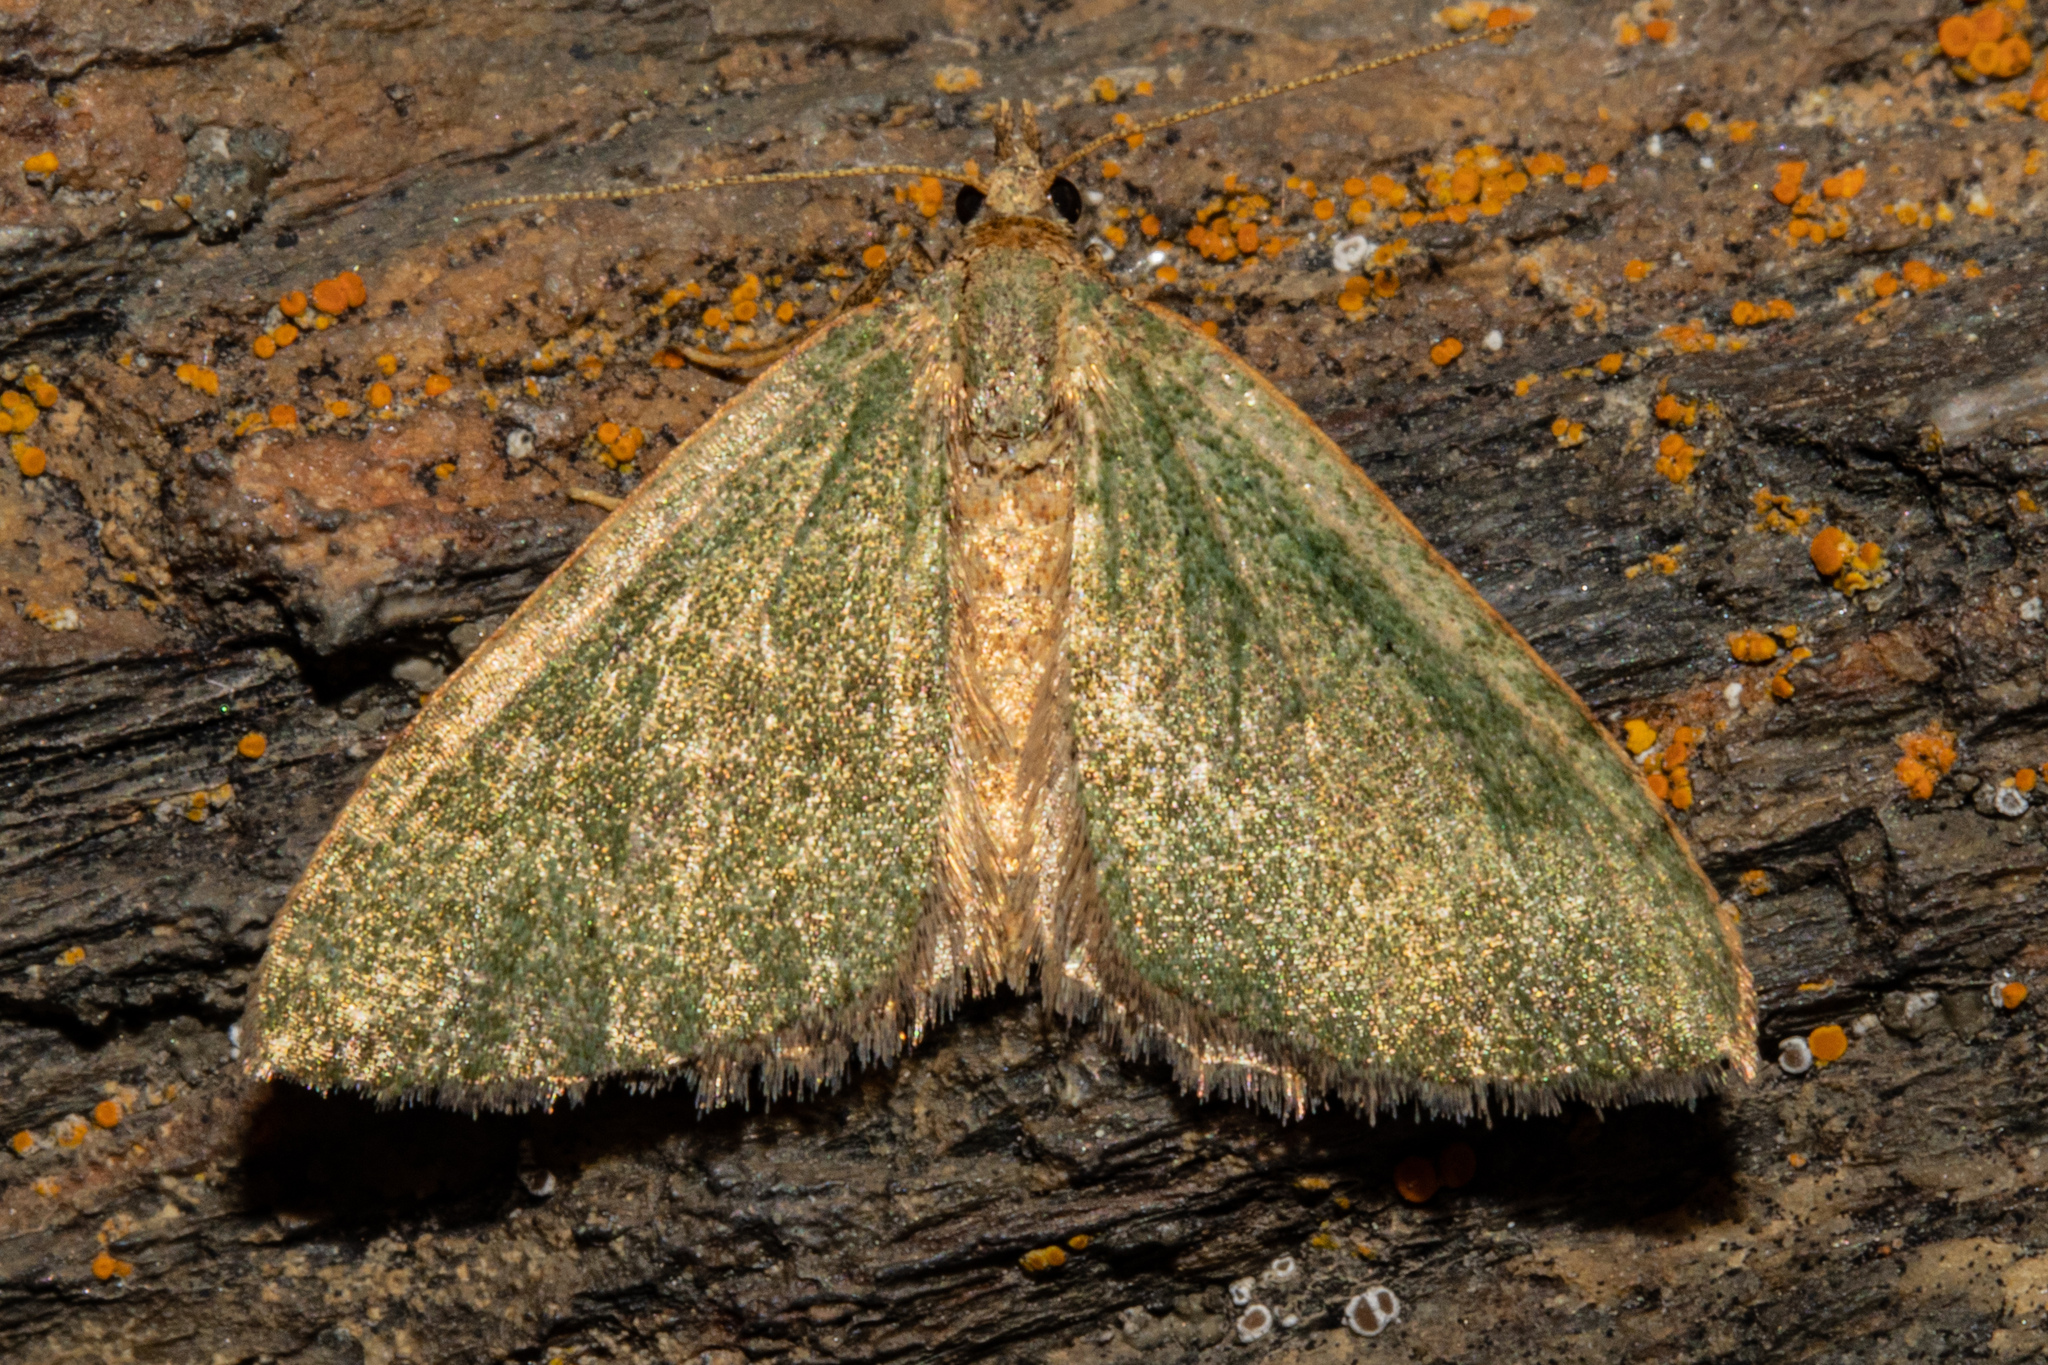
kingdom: Animalia
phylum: Arthropoda
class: Insecta
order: Lepidoptera
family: Geometridae
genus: Epyaxa
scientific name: Epyaxa rosearia
